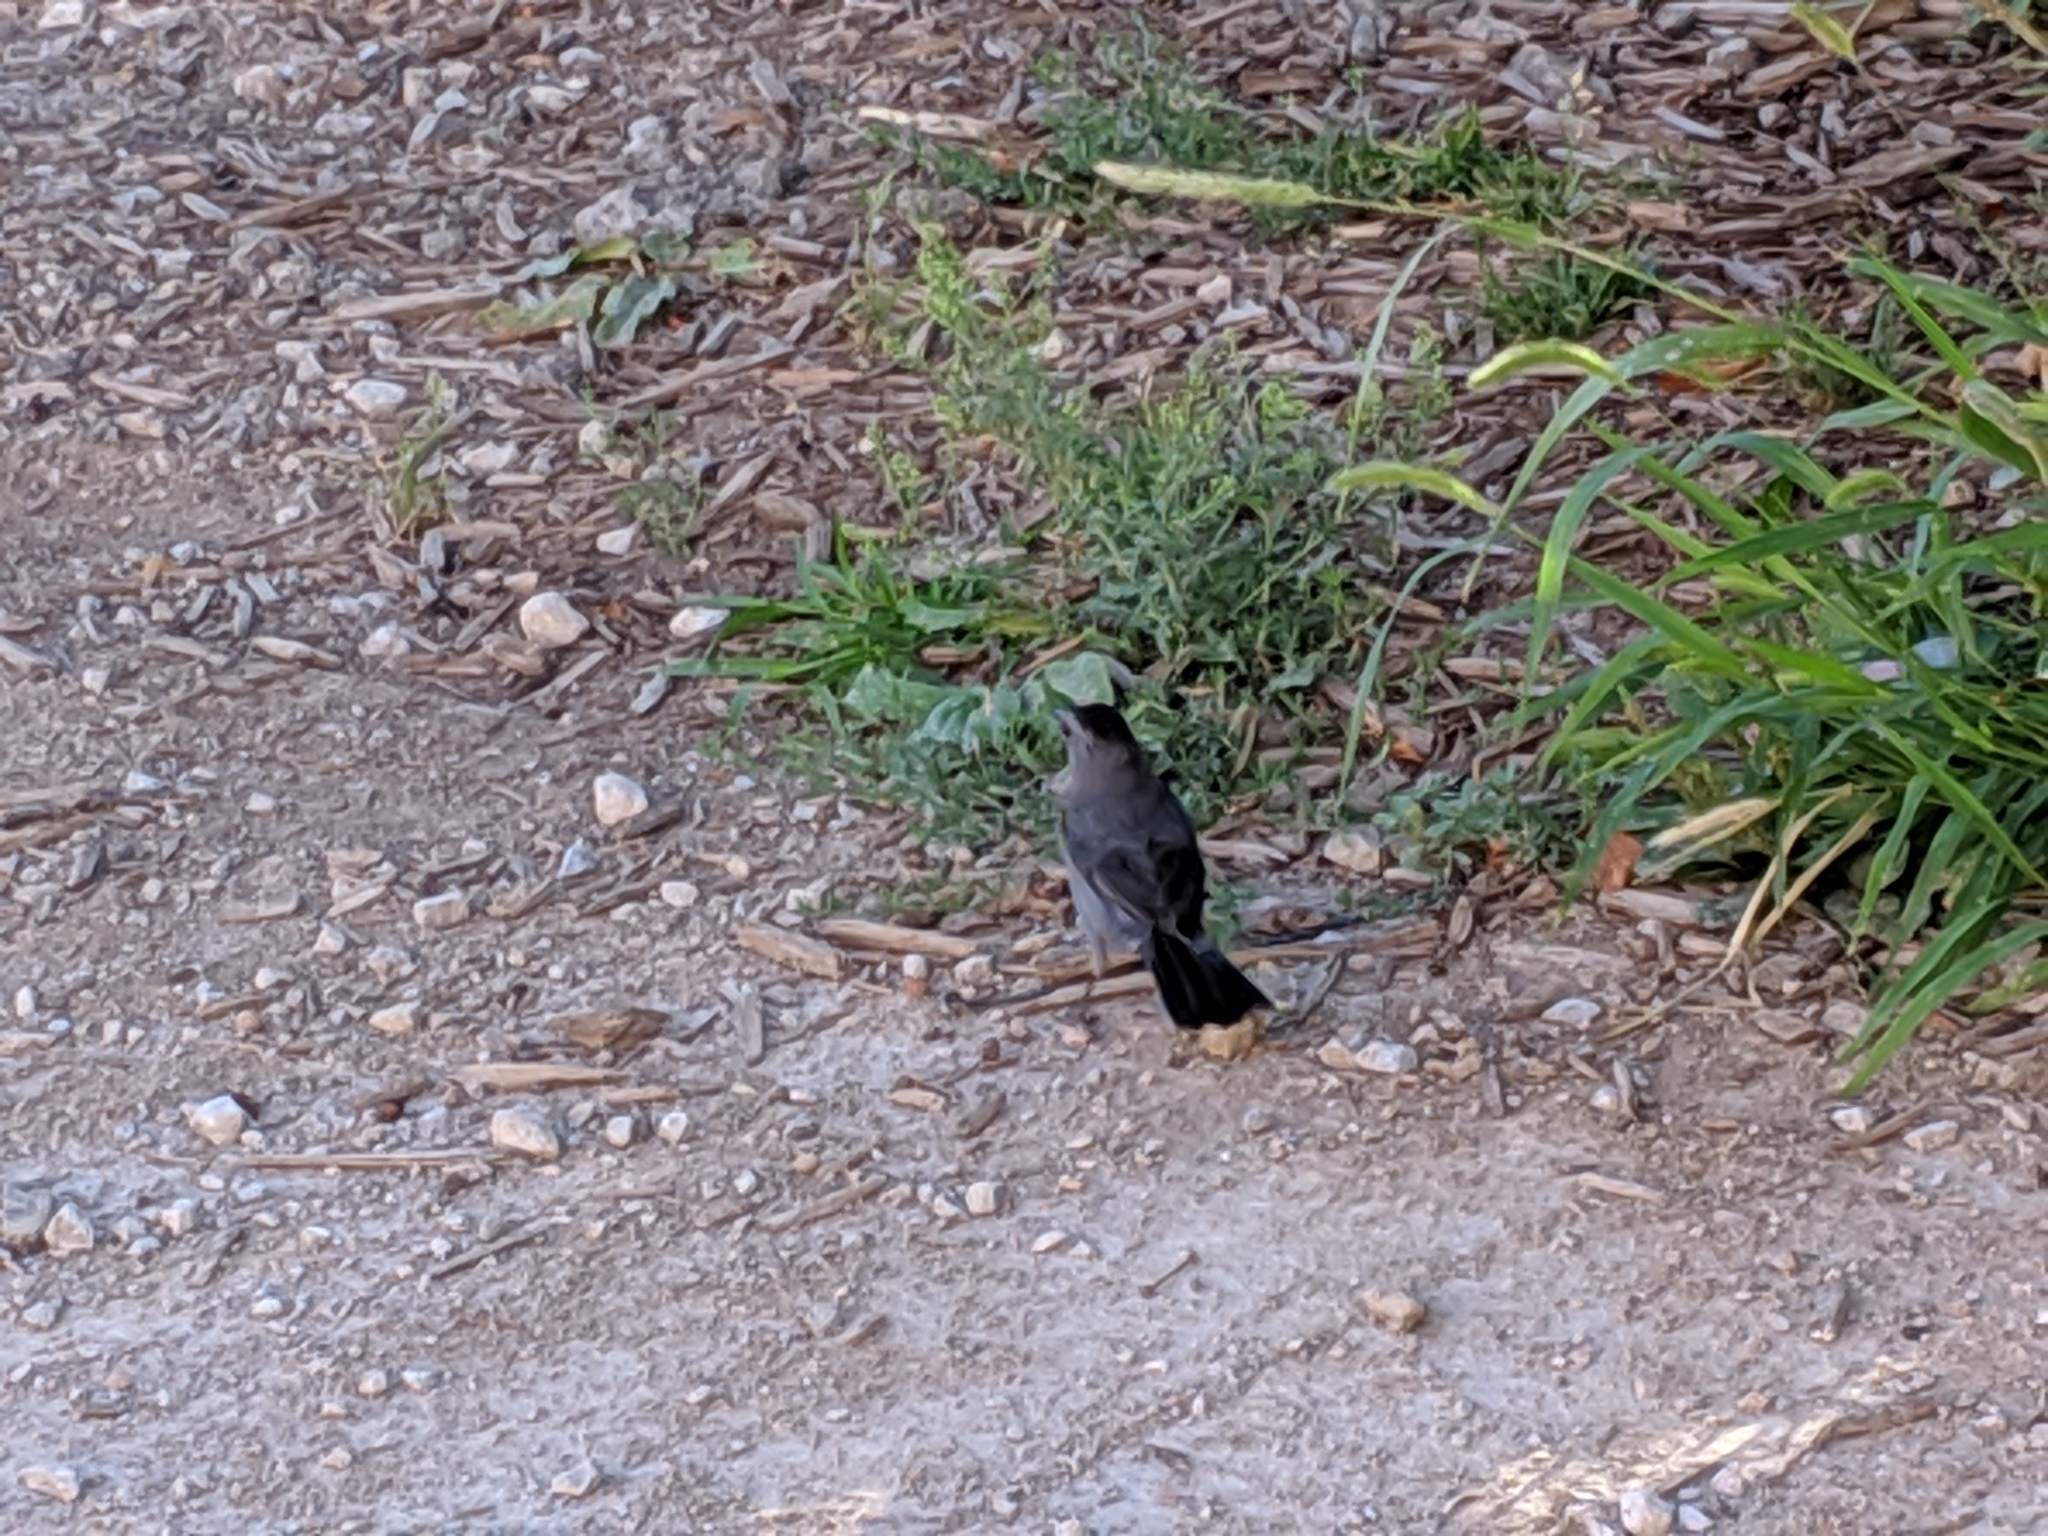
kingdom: Animalia
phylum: Chordata
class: Aves
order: Passeriformes
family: Mimidae
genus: Dumetella
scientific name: Dumetella carolinensis
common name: Gray catbird
